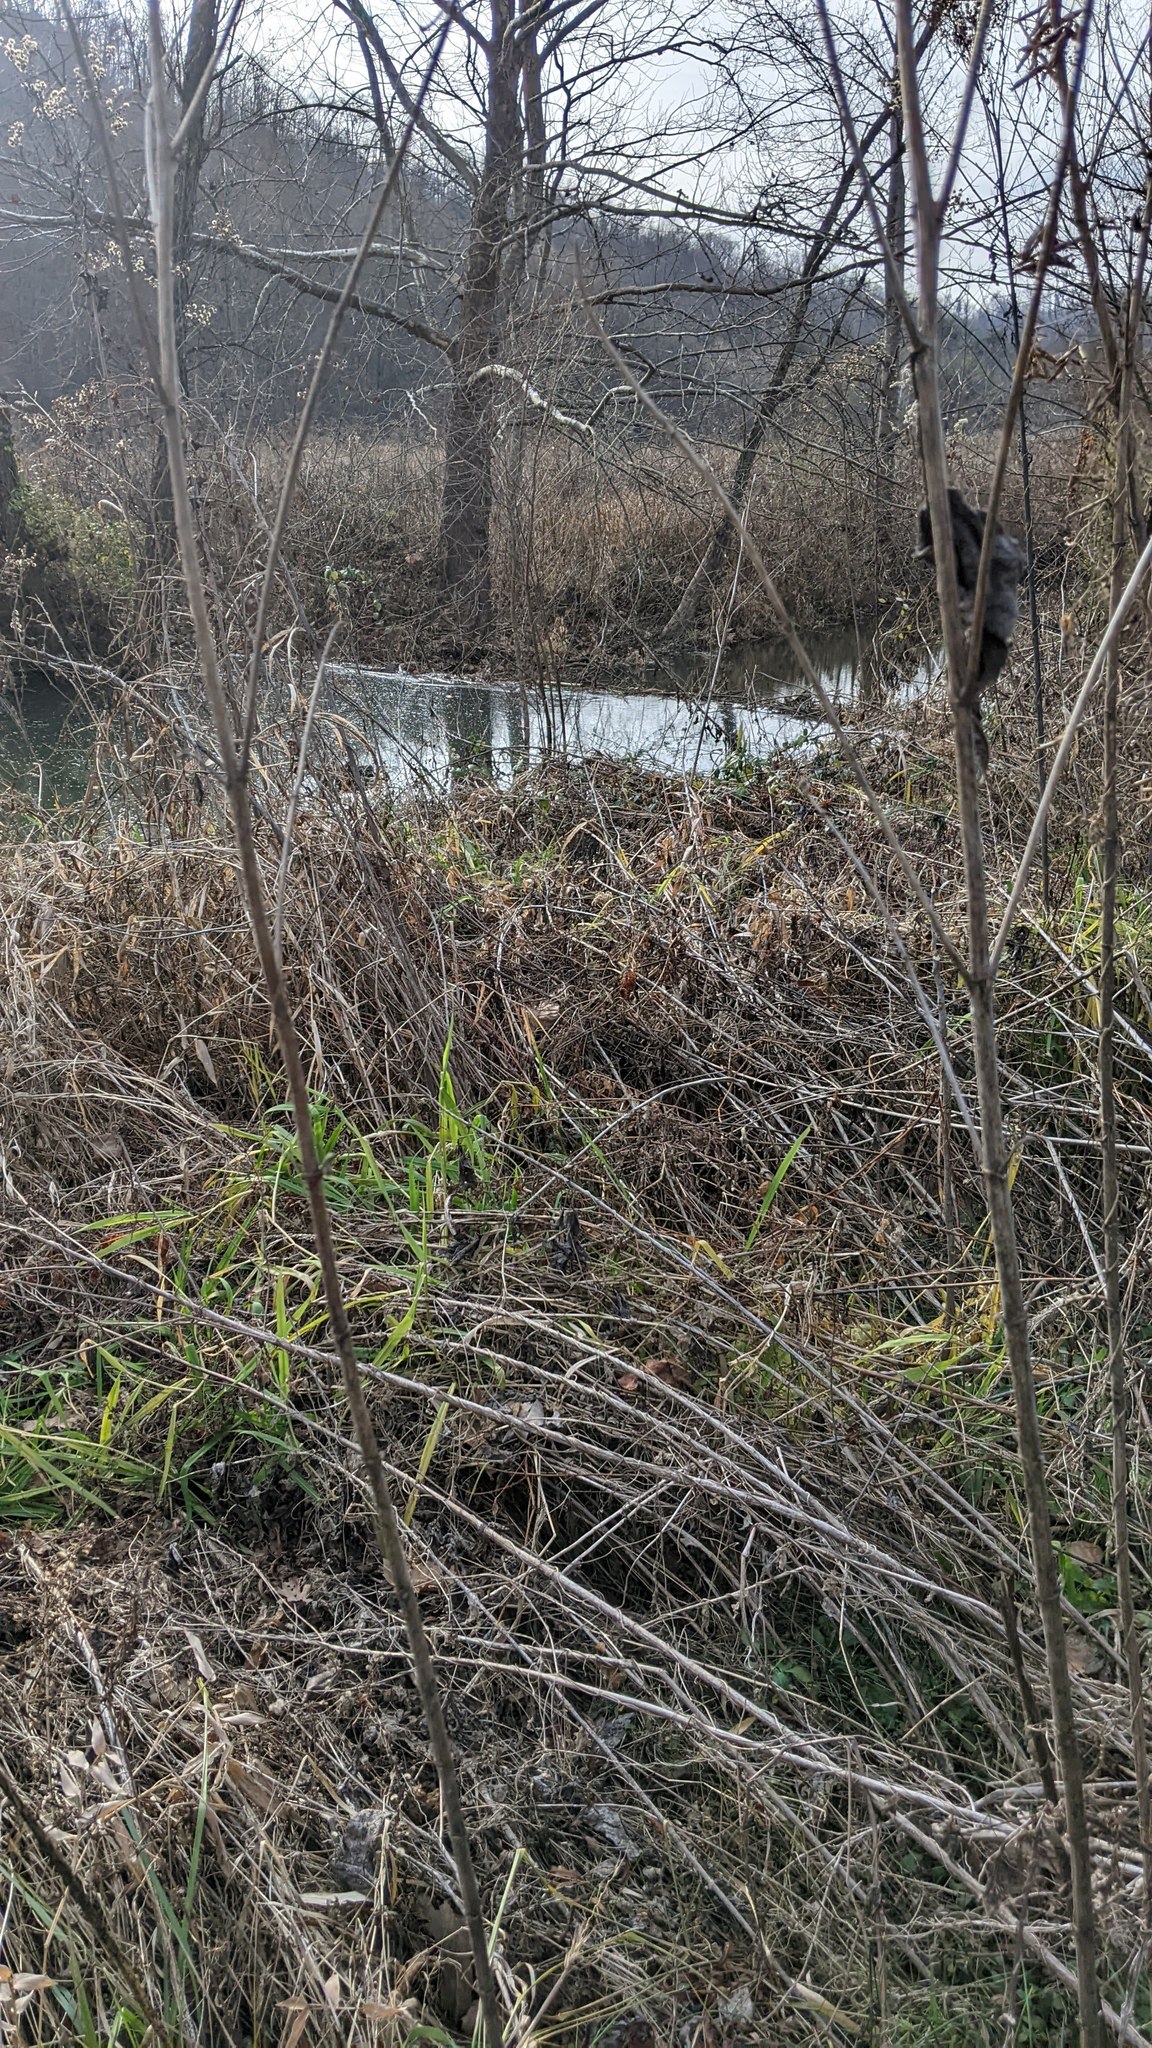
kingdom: Animalia
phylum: Chordata
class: Mammalia
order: Rodentia
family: Castoridae
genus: Castor
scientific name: Castor canadensis
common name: American beaver
